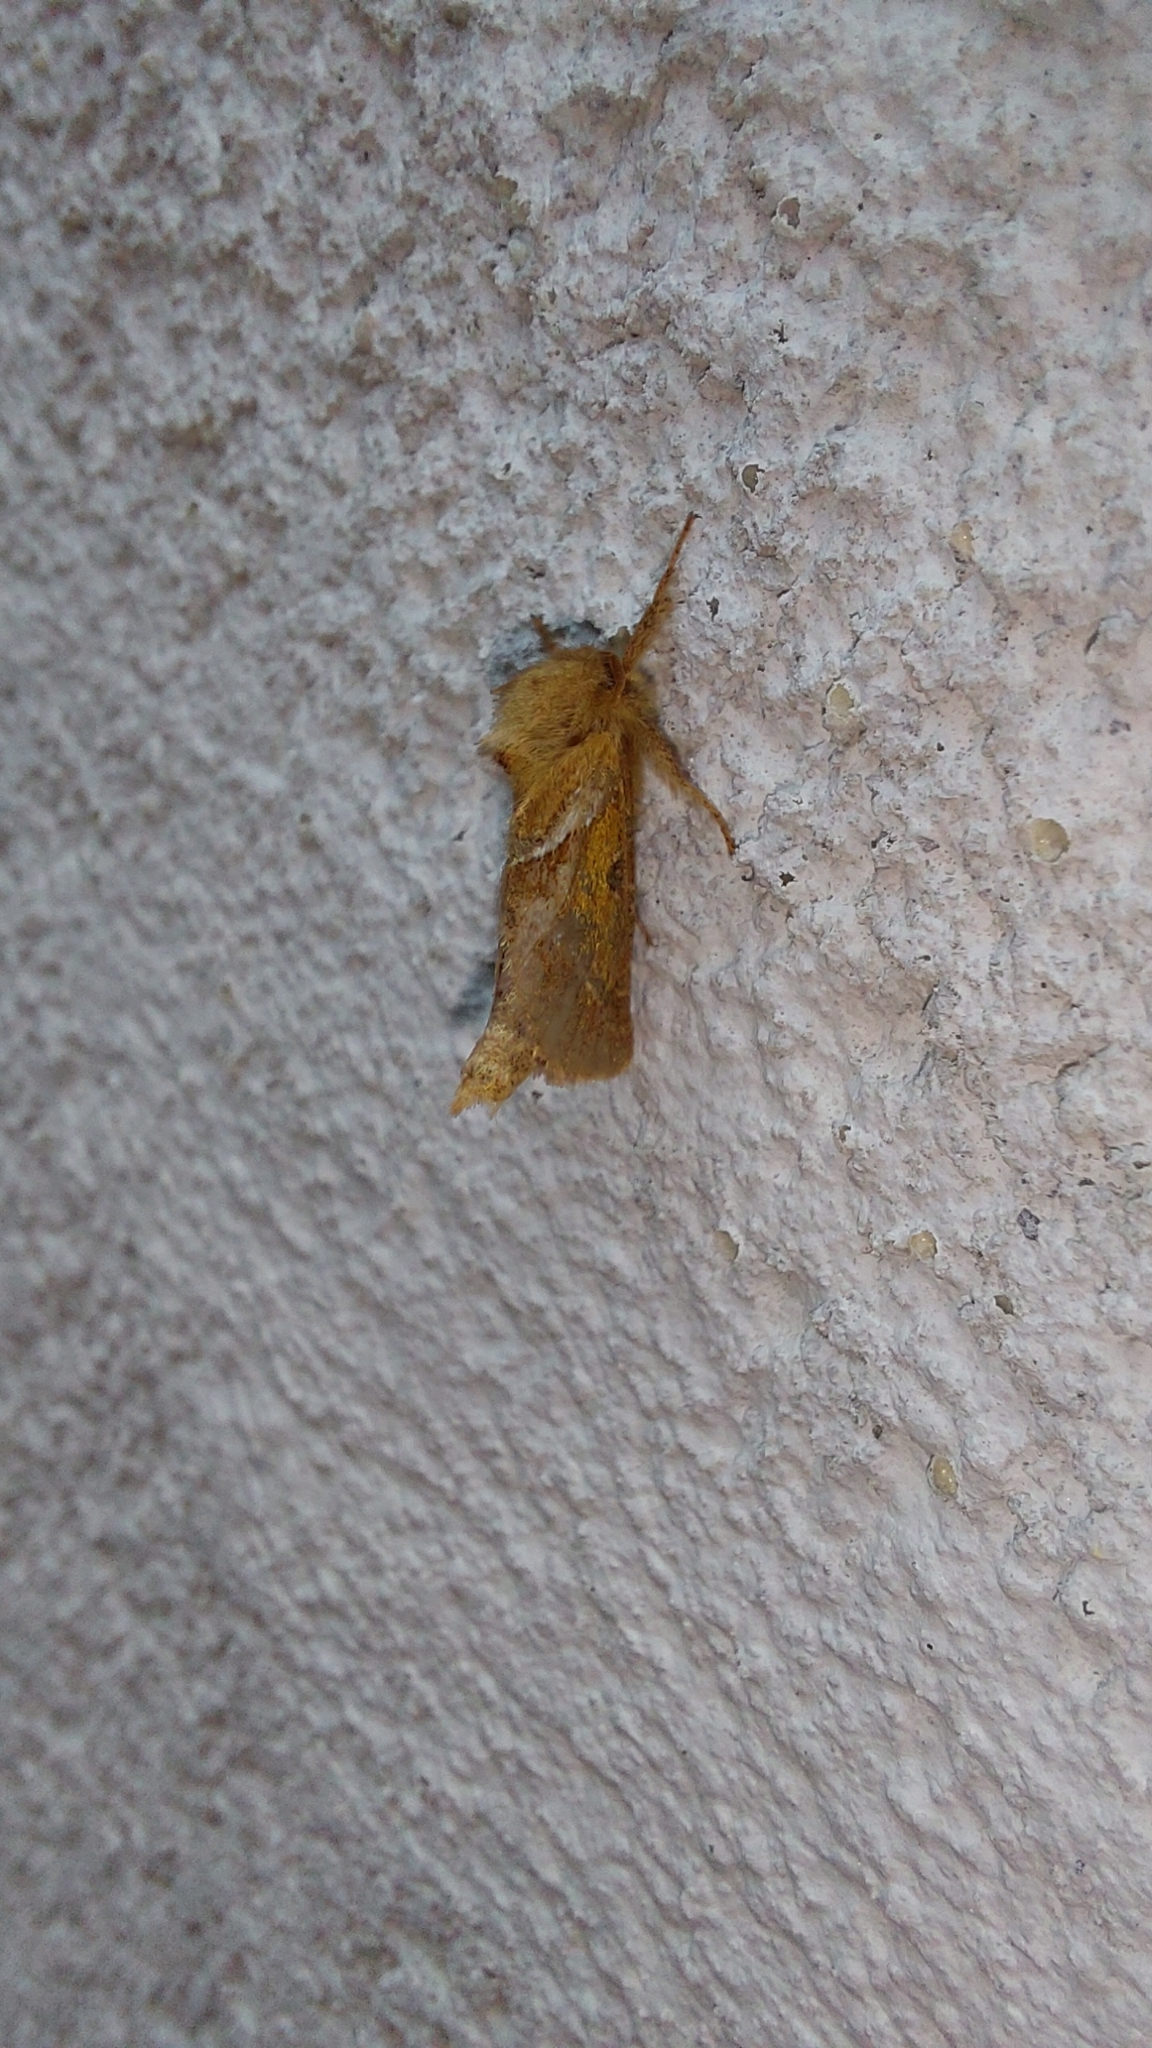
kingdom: Animalia
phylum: Arthropoda
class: Insecta
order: Lepidoptera
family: Hepialidae
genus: Triodia
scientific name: Triodia sylvina
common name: Orange swift
